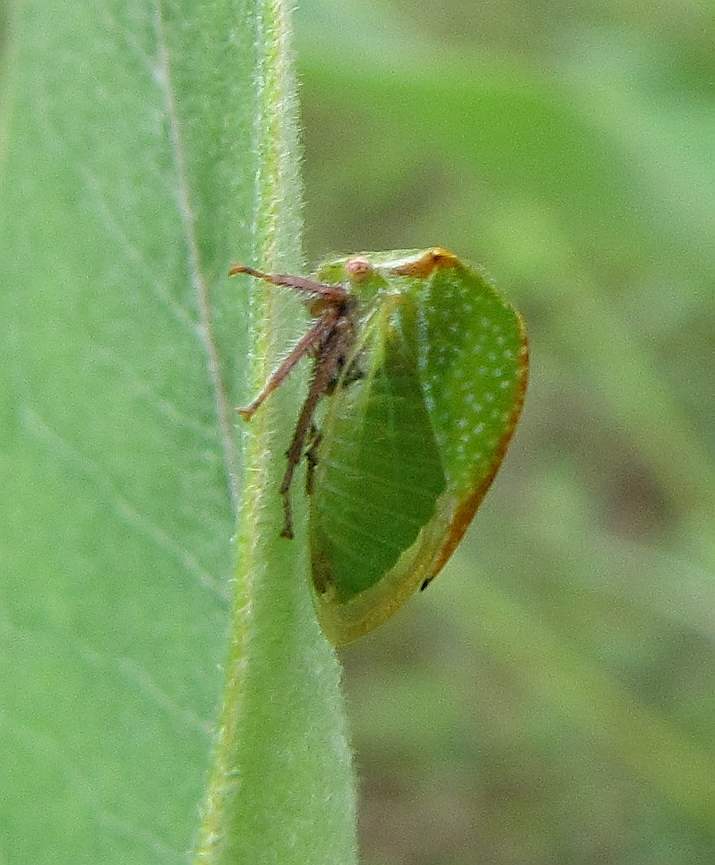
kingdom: Animalia
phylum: Arthropoda
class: Insecta
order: Hemiptera
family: Membracidae
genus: Stictocephala
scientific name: Stictocephala bisonia
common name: American buffalo treehopper
